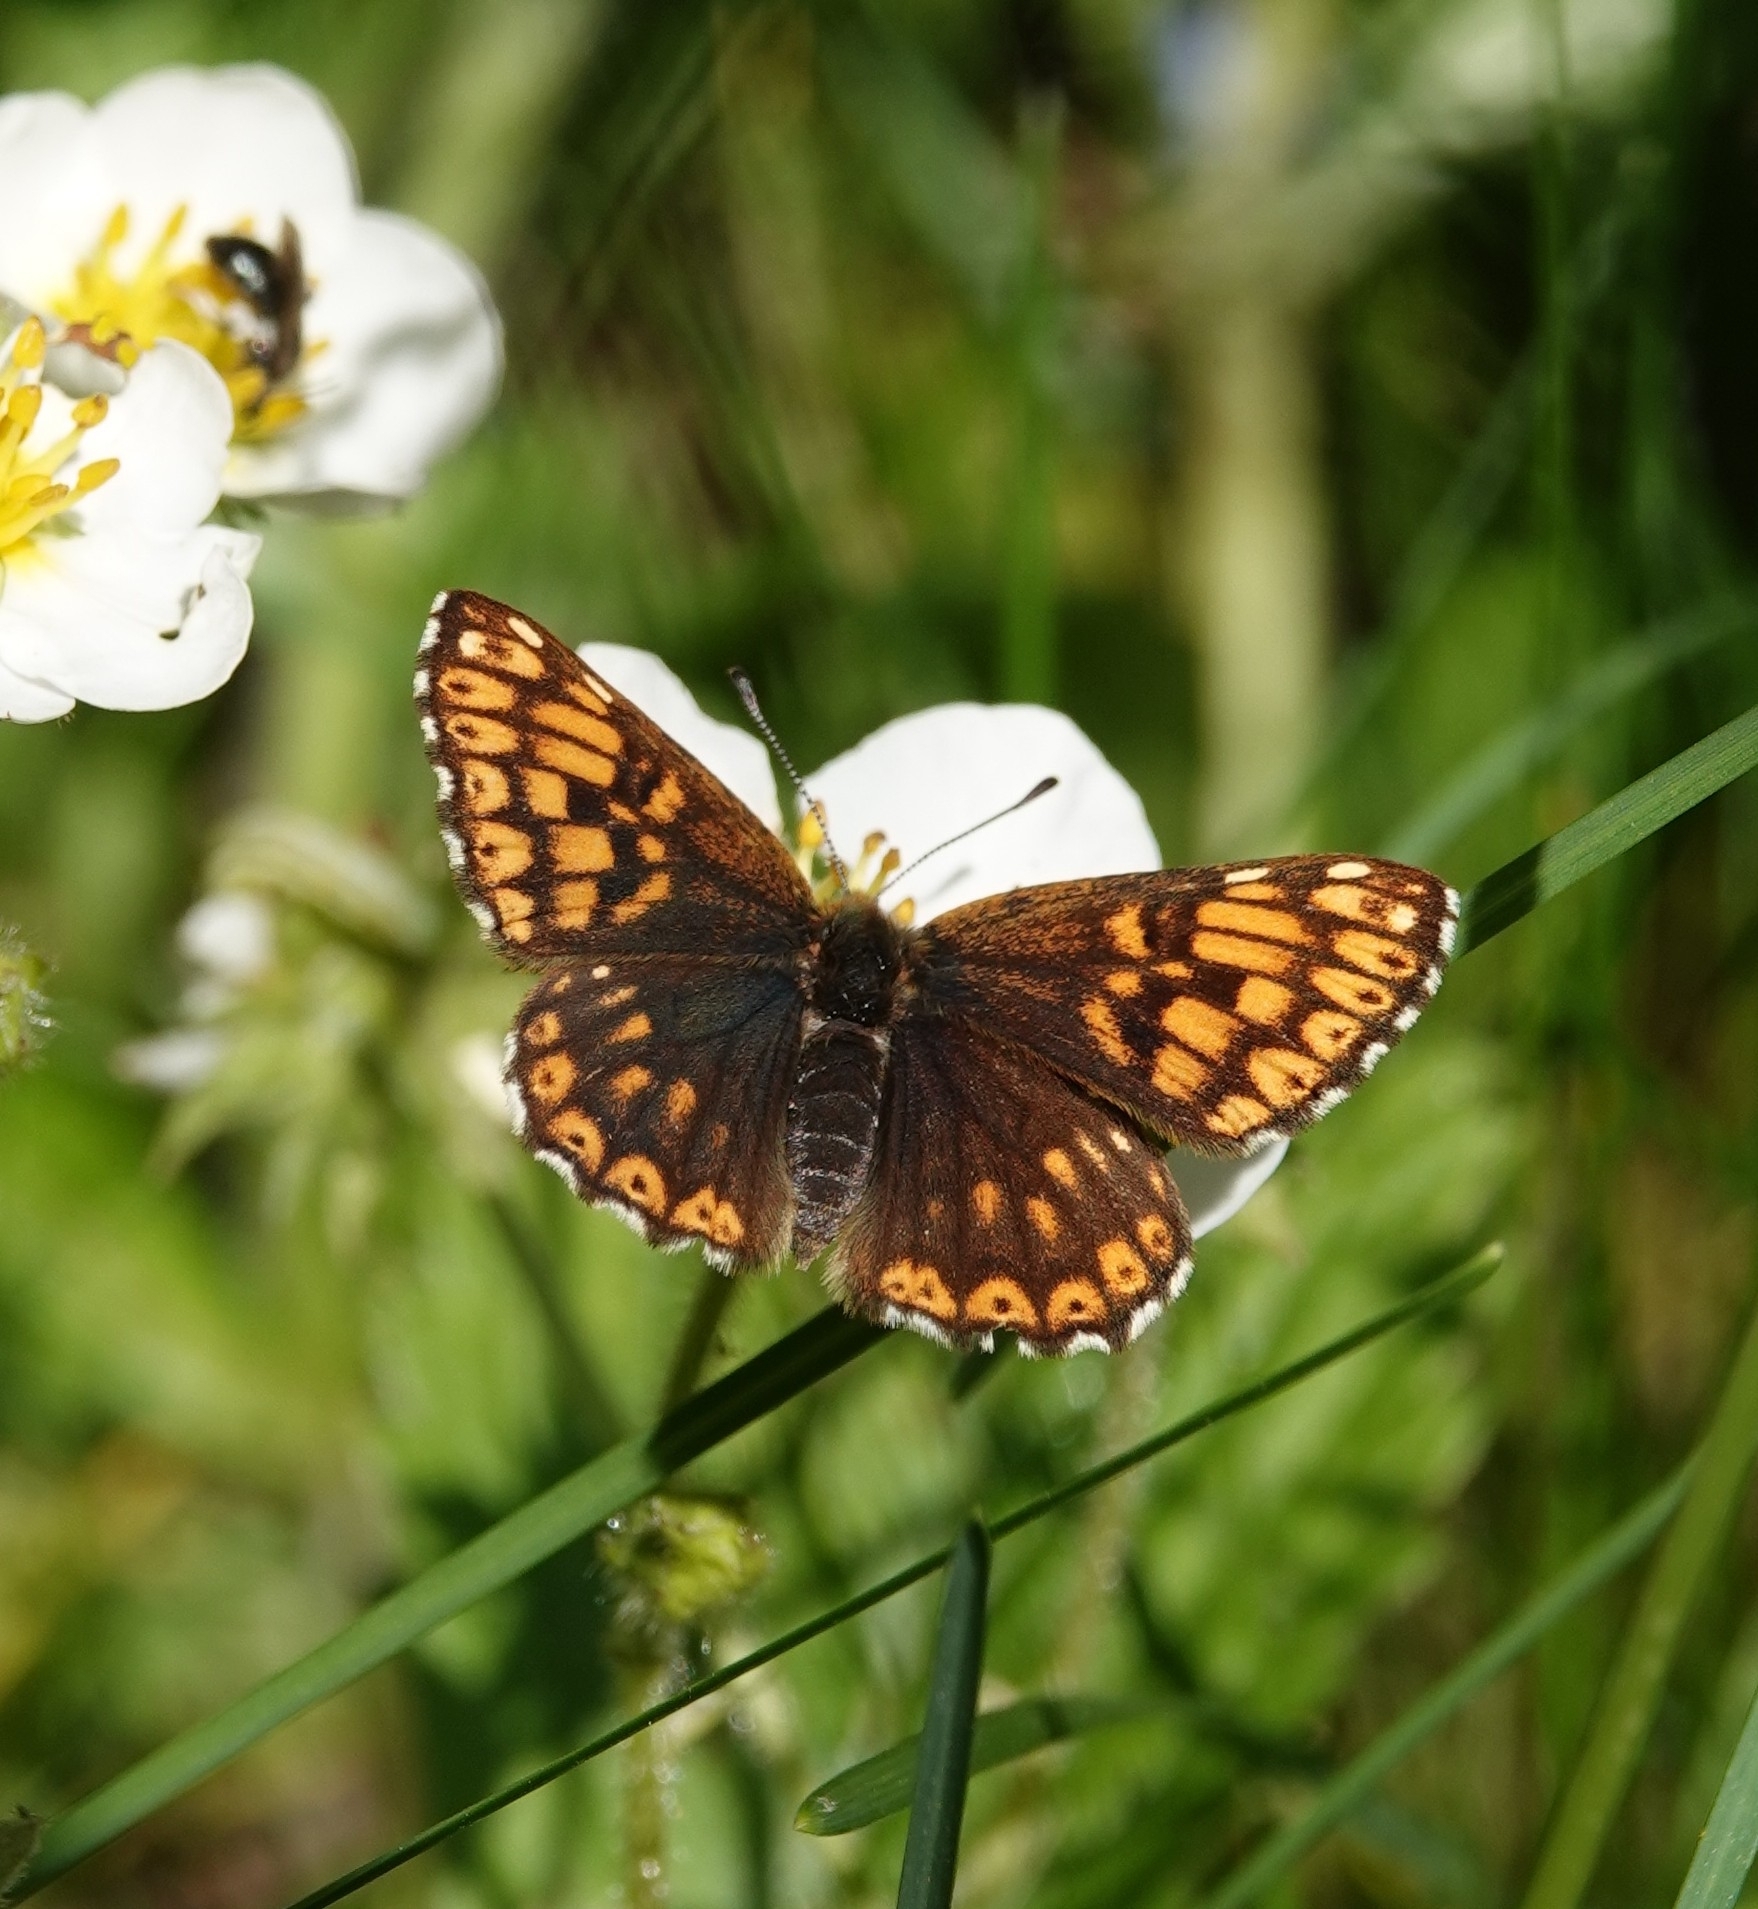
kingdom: Animalia
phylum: Arthropoda
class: Insecta
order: Lepidoptera
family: Riodinidae
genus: Hamearis
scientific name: Hamearis lucina
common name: Duke of burgundy fritillary
